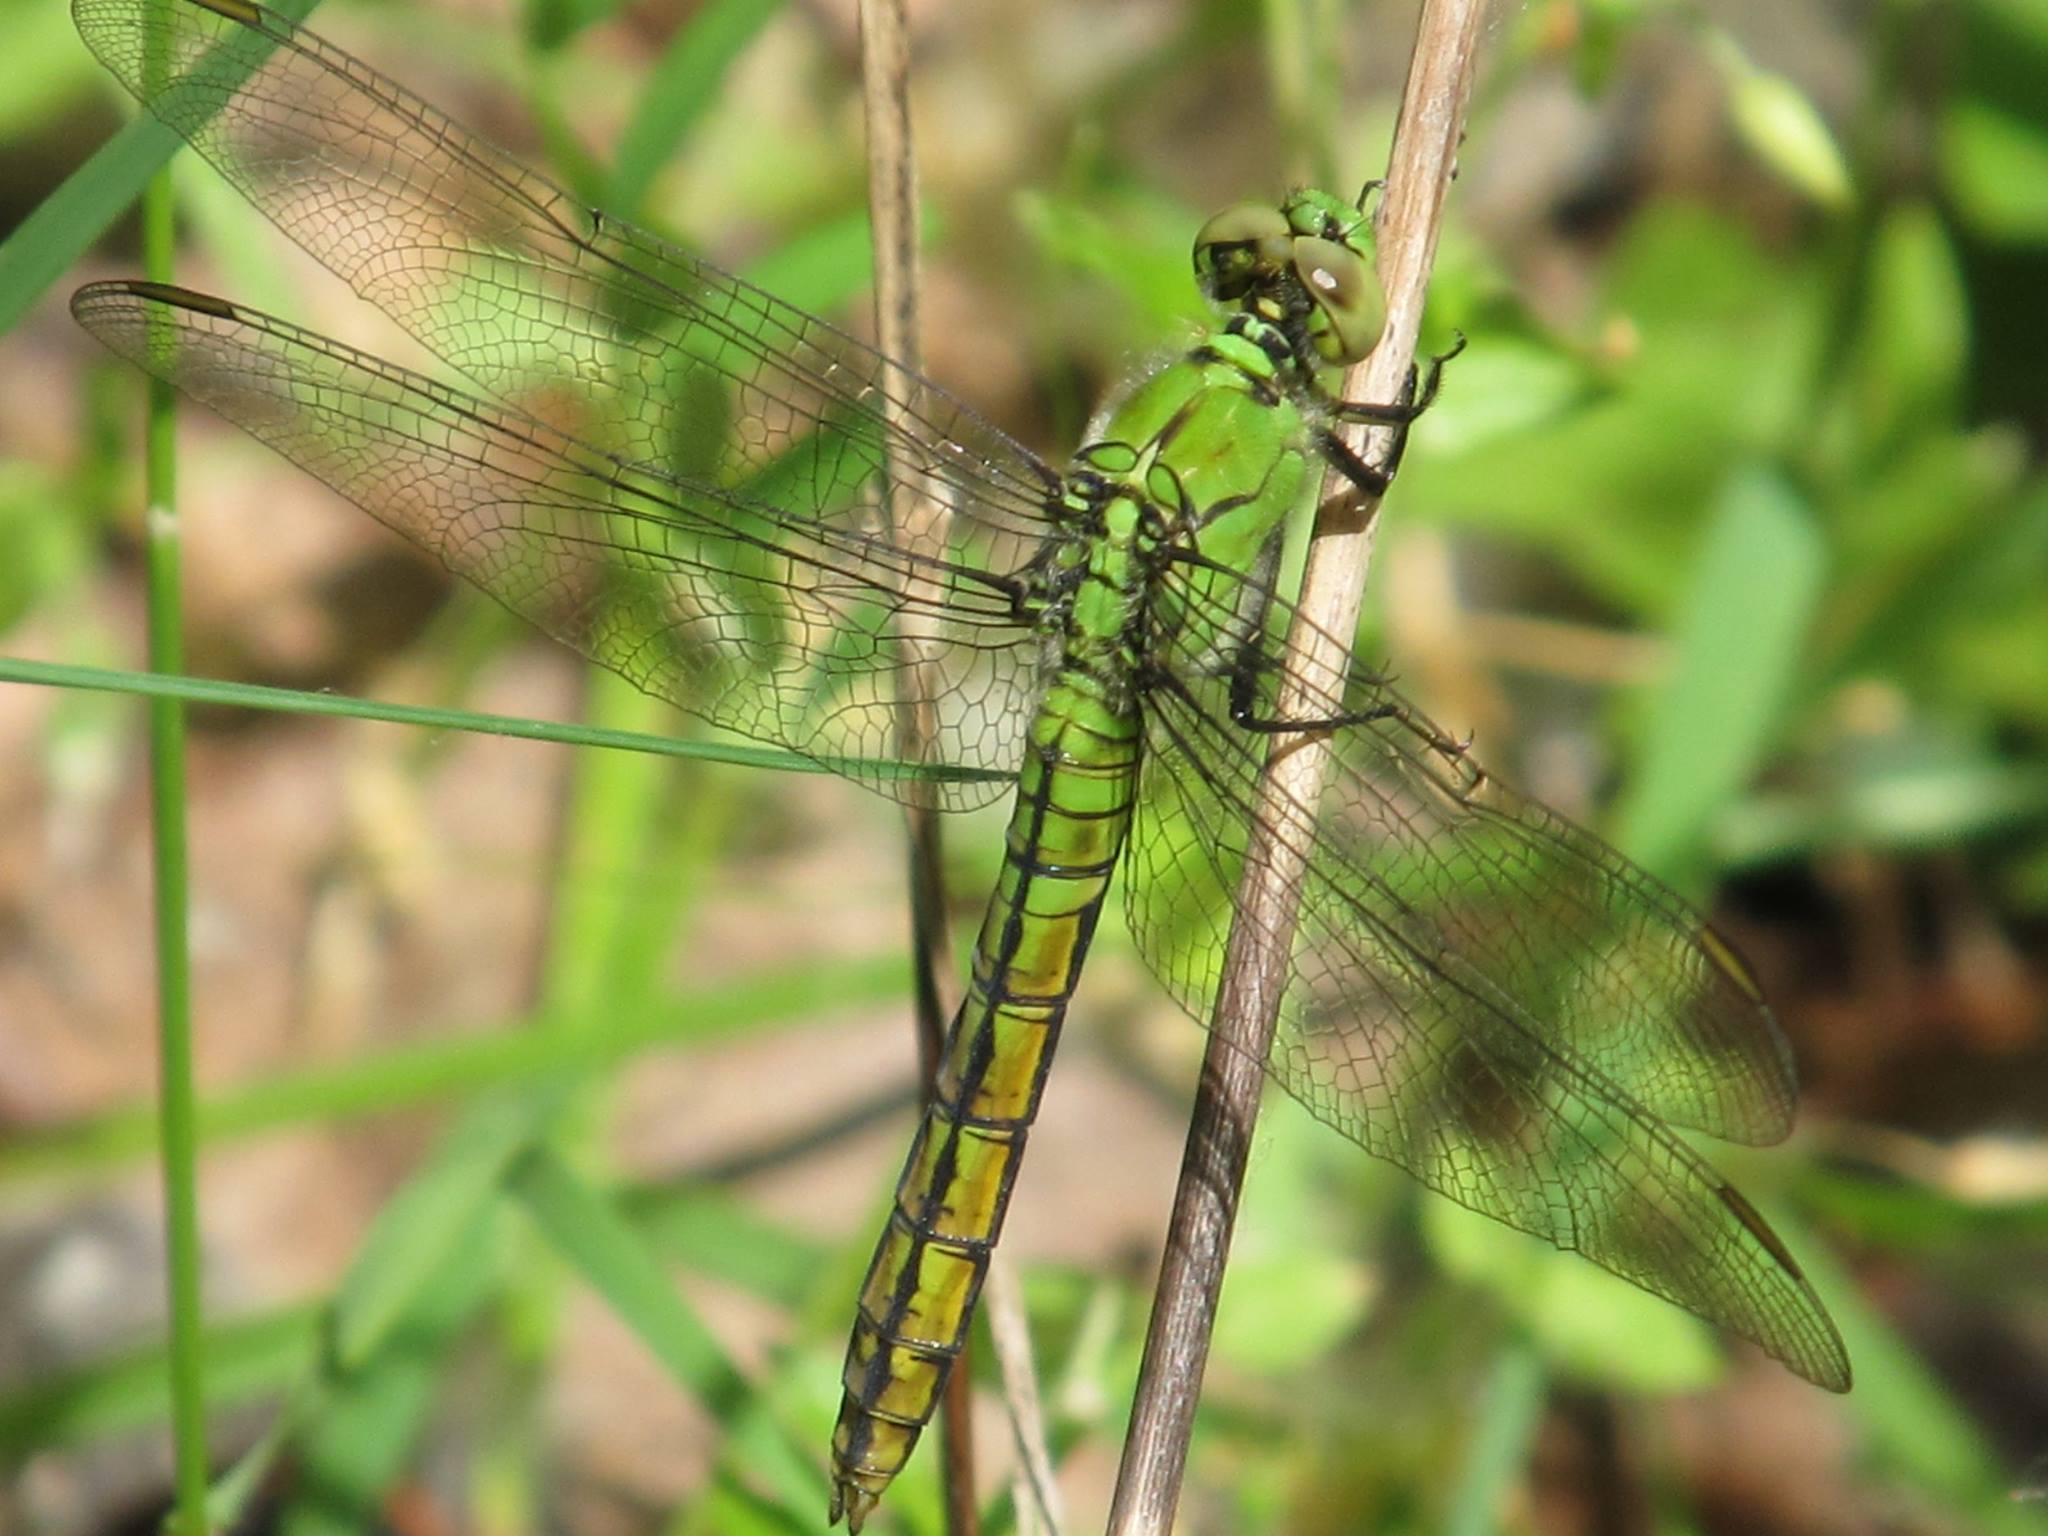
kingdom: Animalia
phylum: Arthropoda
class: Insecta
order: Odonata
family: Libellulidae
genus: Erythemis
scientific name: Erythemis collocata
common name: Western pondhawk
